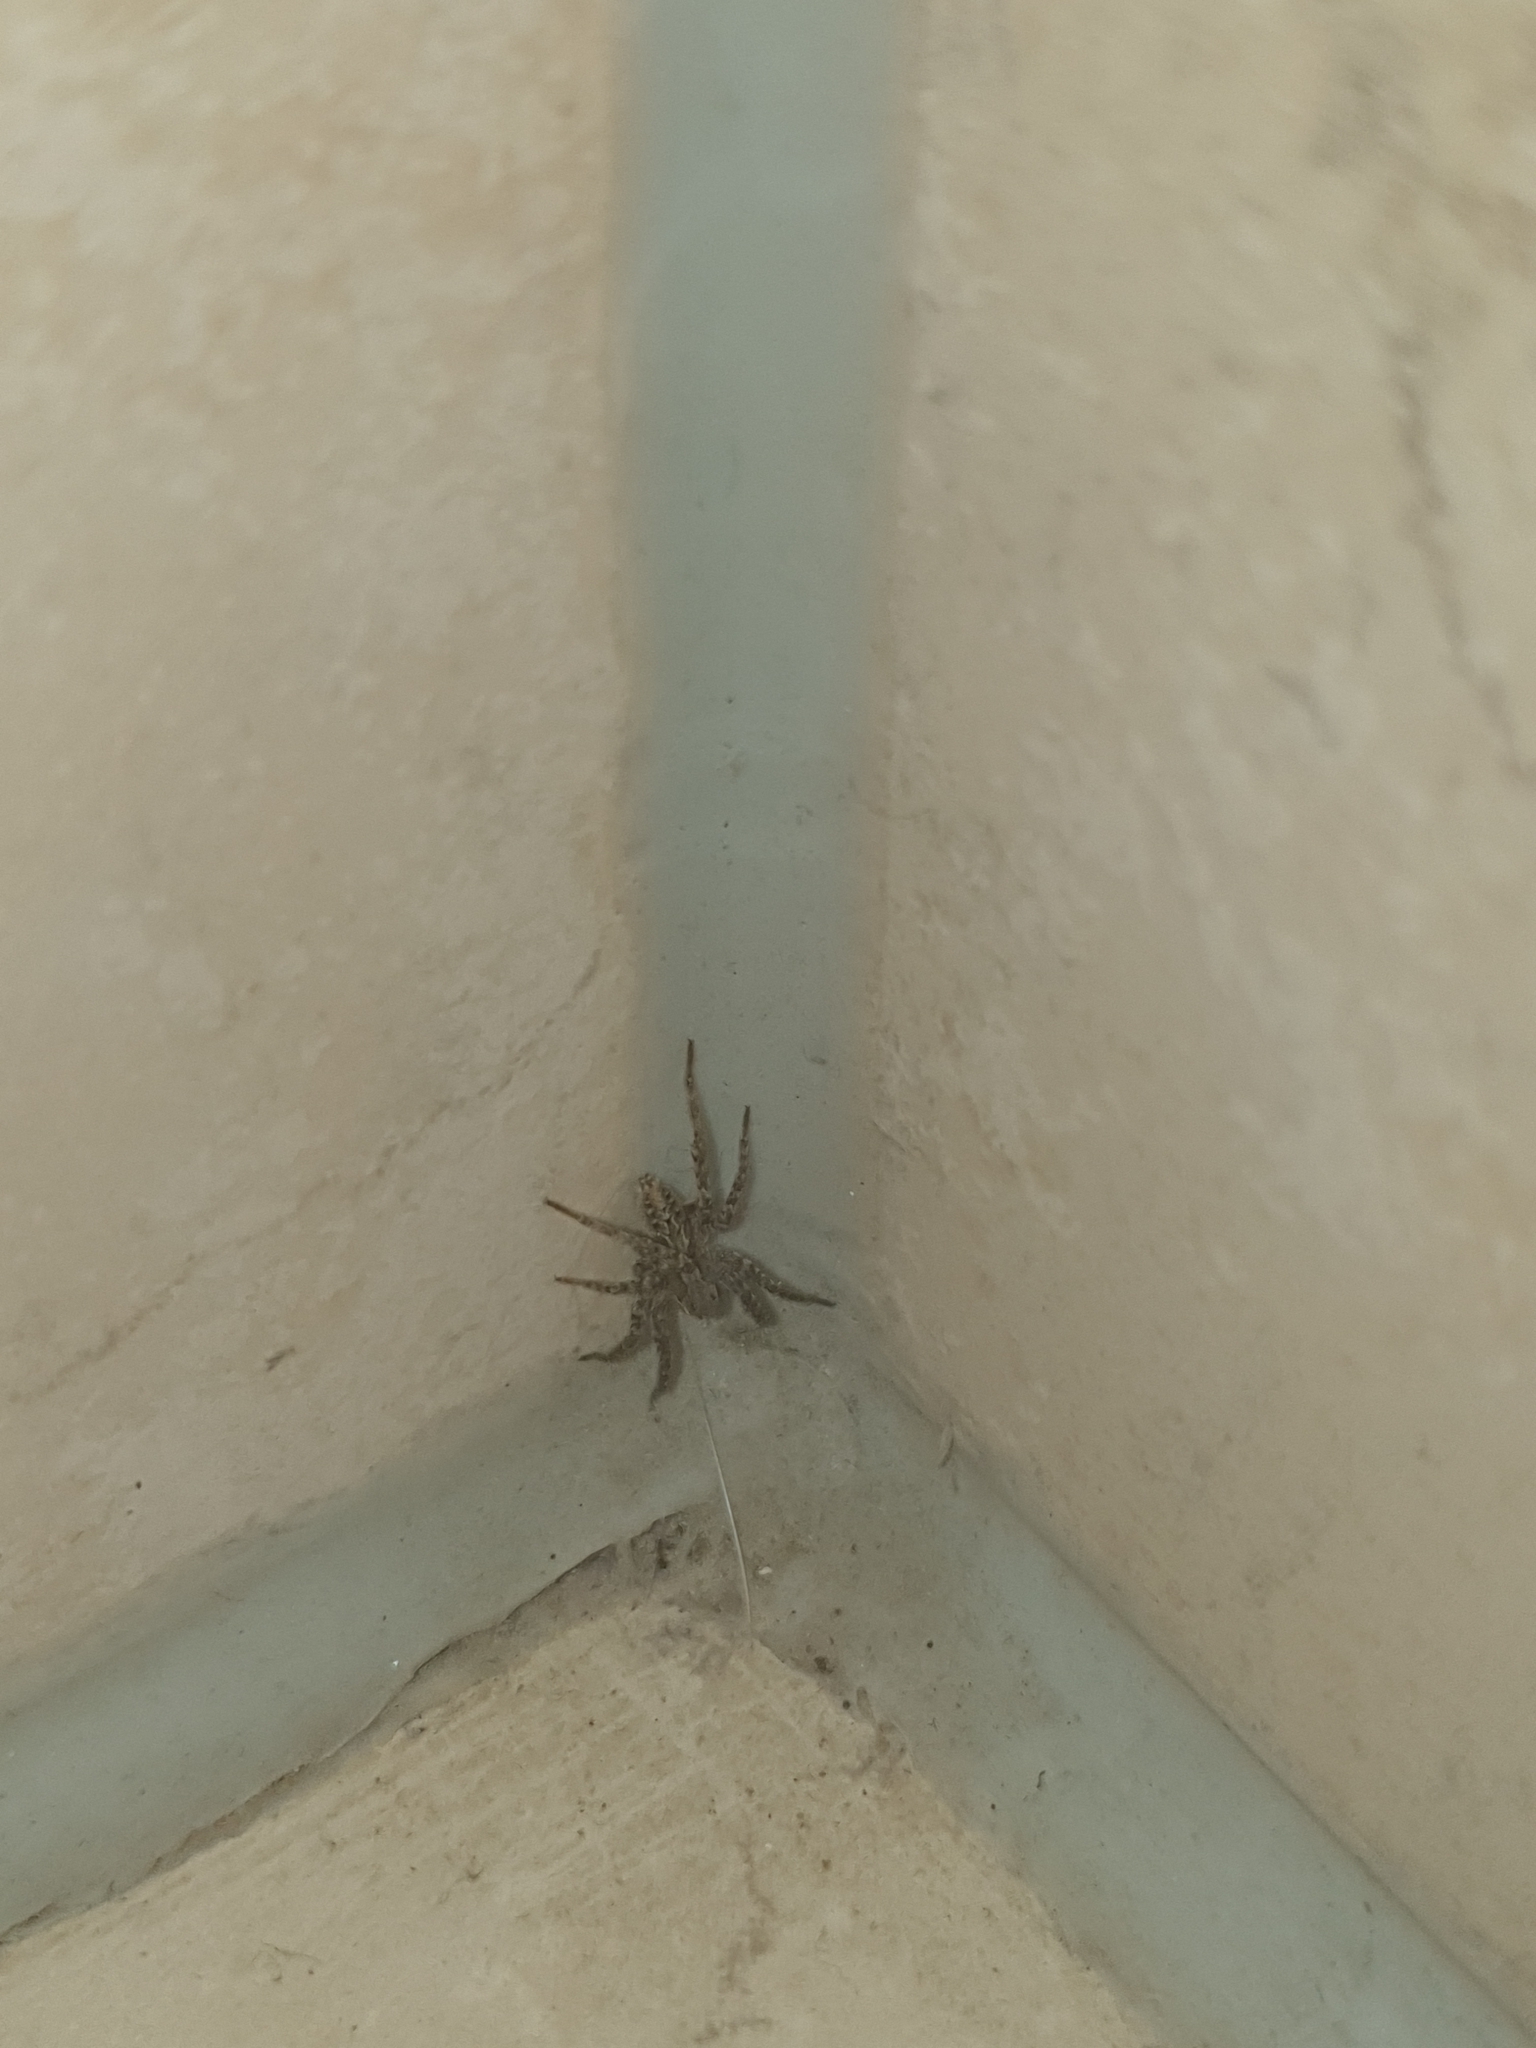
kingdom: Animalia
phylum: Arthropoda
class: Arachnida
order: Araneae
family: Lycosidae
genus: Alopecosa
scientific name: Alopecosa barbipes
